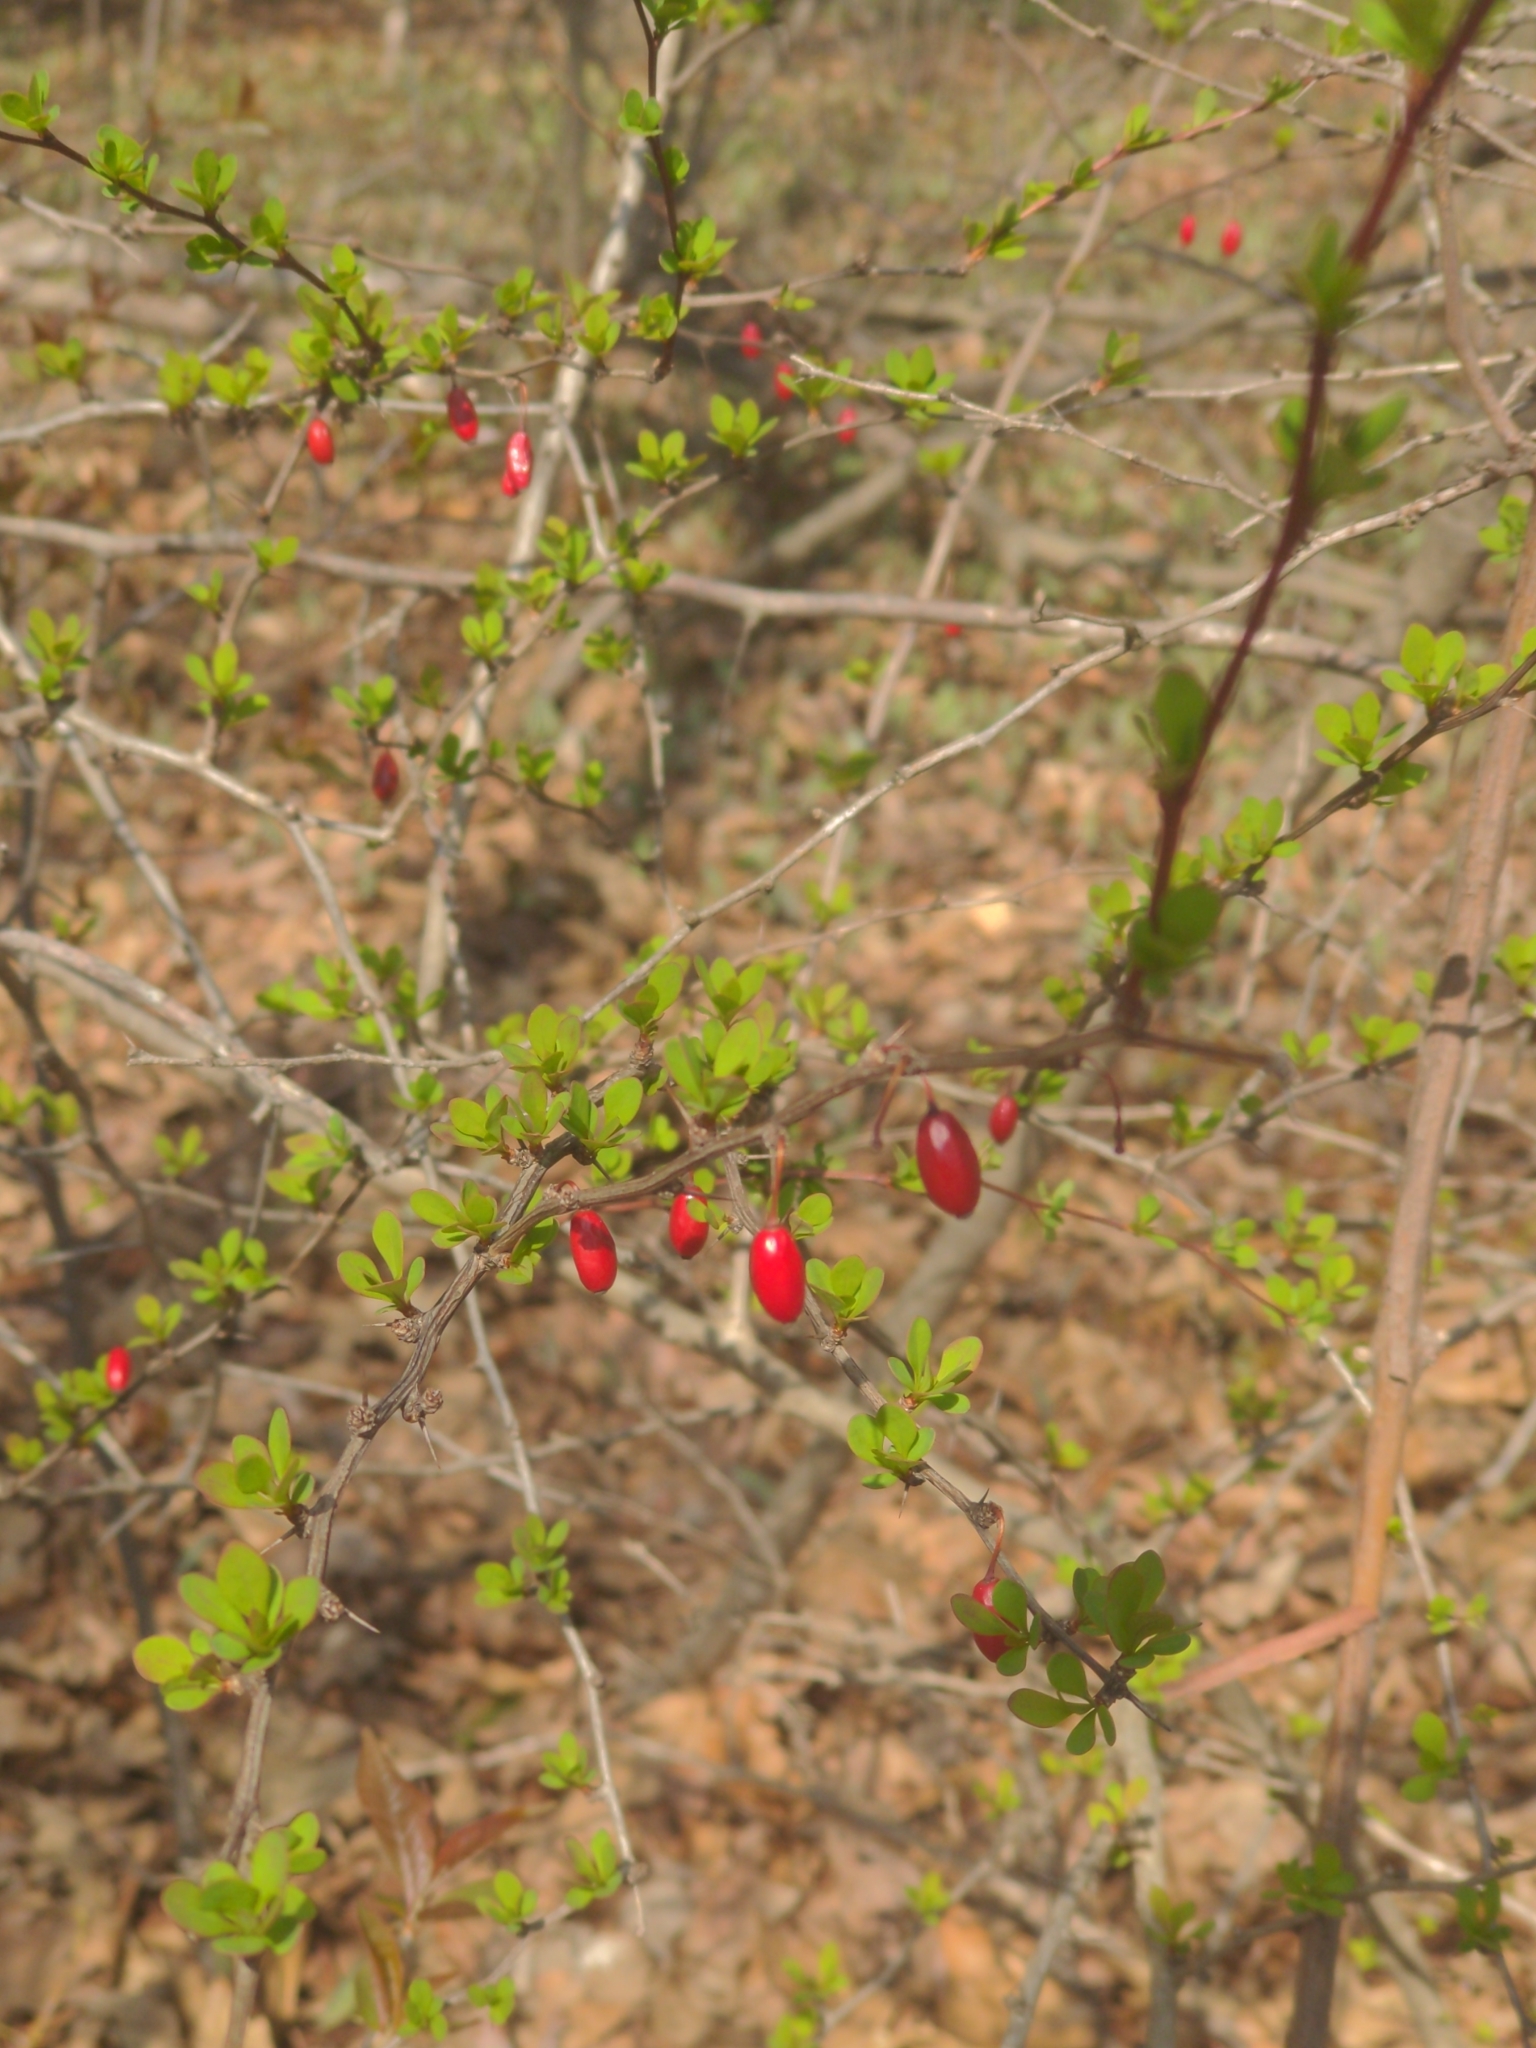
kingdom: Plantae
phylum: Tracheophyta
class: Magnoliopsida
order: Ranunculales
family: Berberidaceae
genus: Berberis
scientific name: Berberis thunbergii
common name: Japanese barberry
